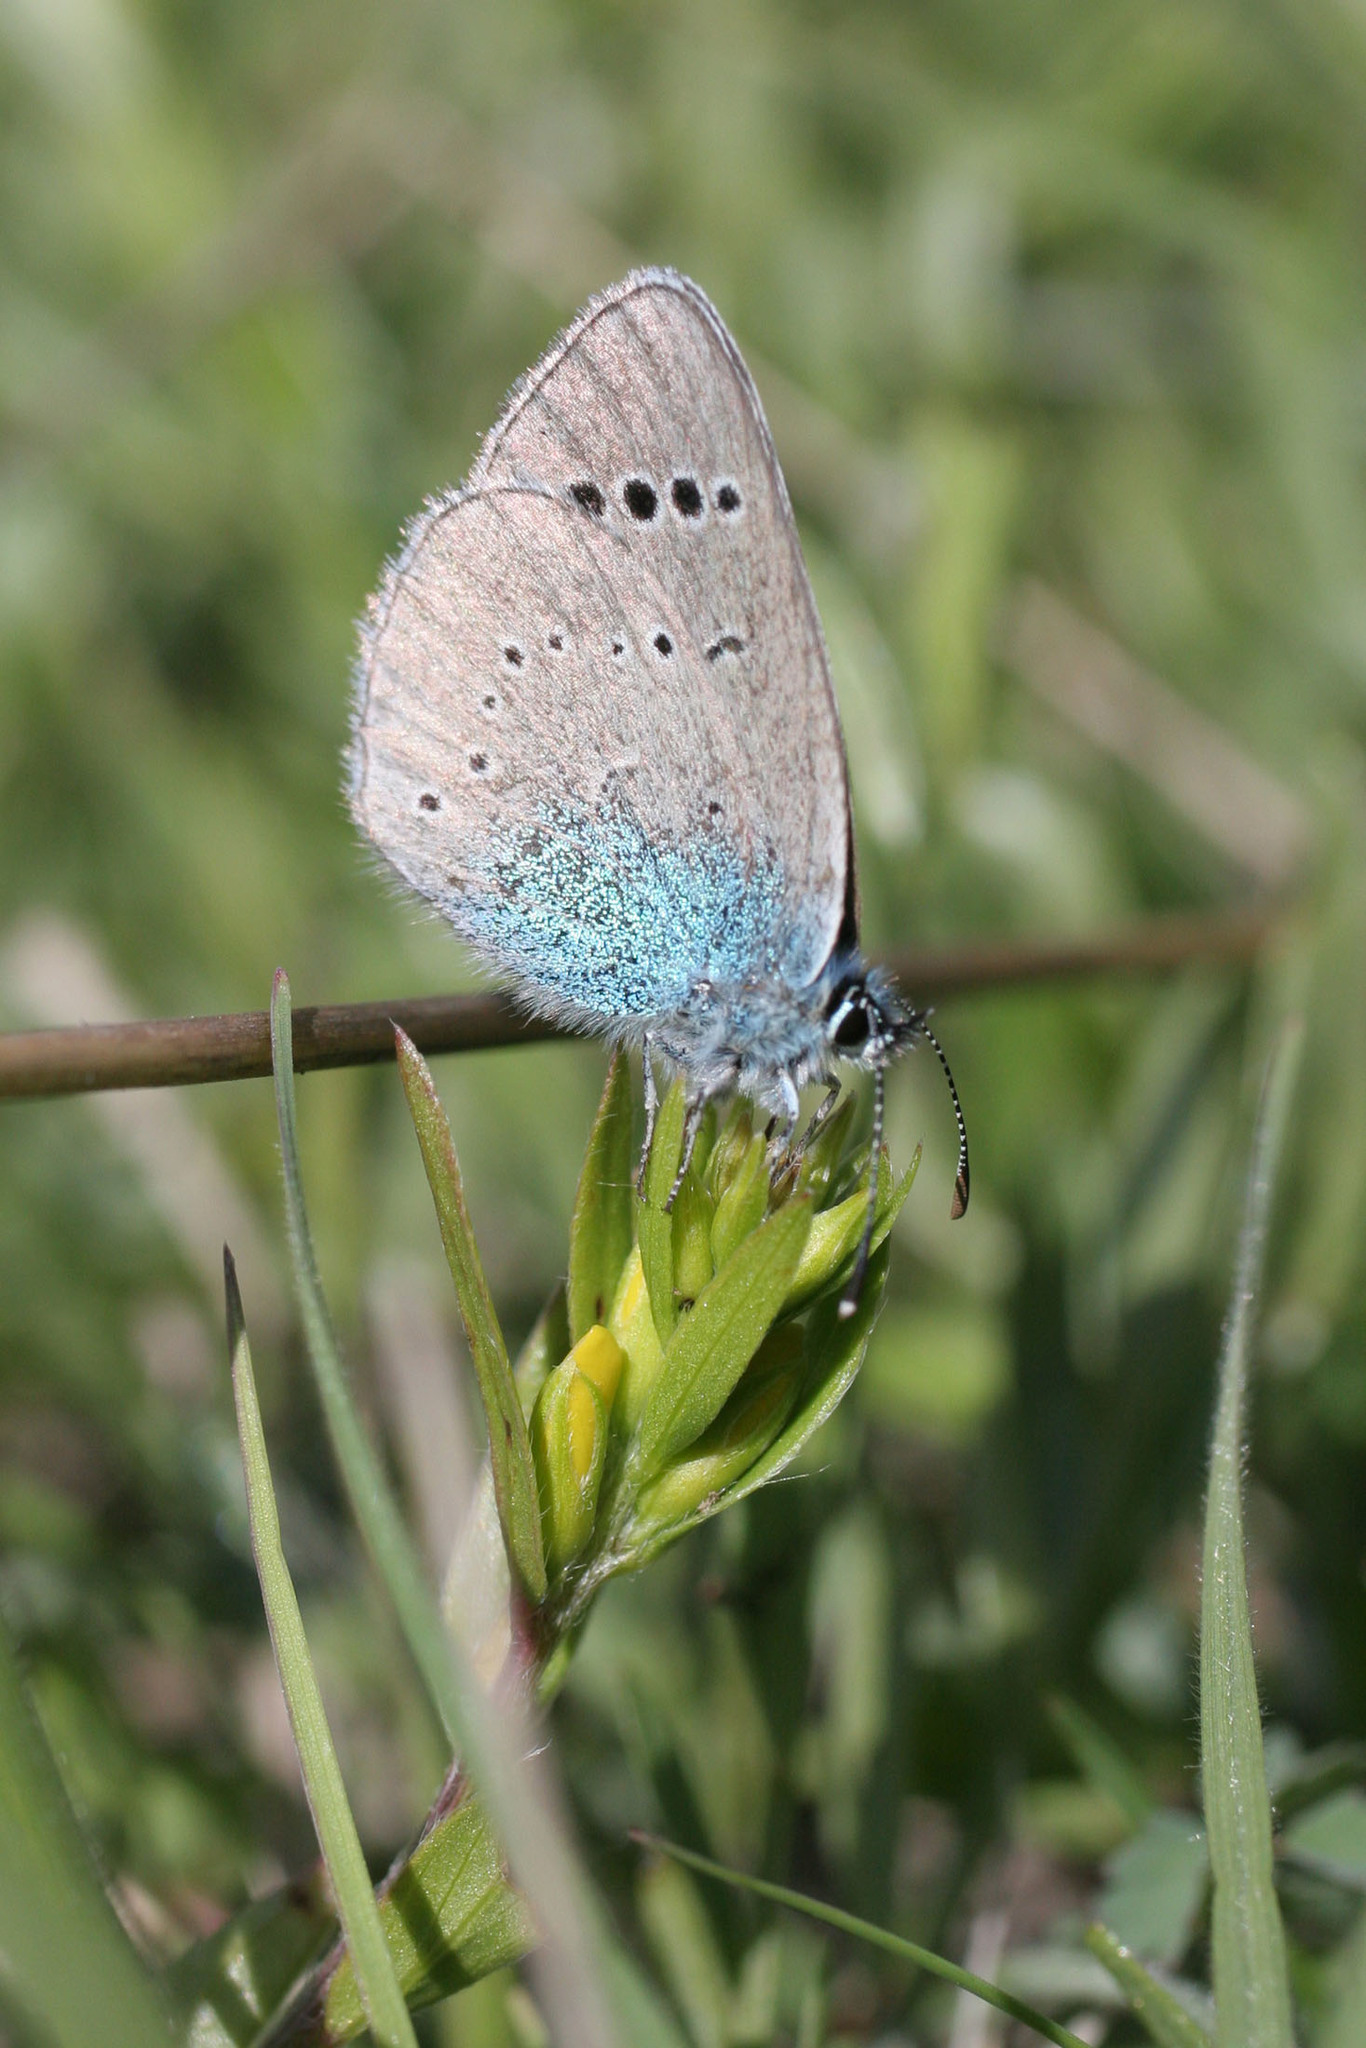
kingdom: Animalia
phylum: Arthropoda
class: Insecta
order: Lepidoptera
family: Lycaenidae
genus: Glaucopsyche
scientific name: Glaucopsyche alexis
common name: Green-underside blue
